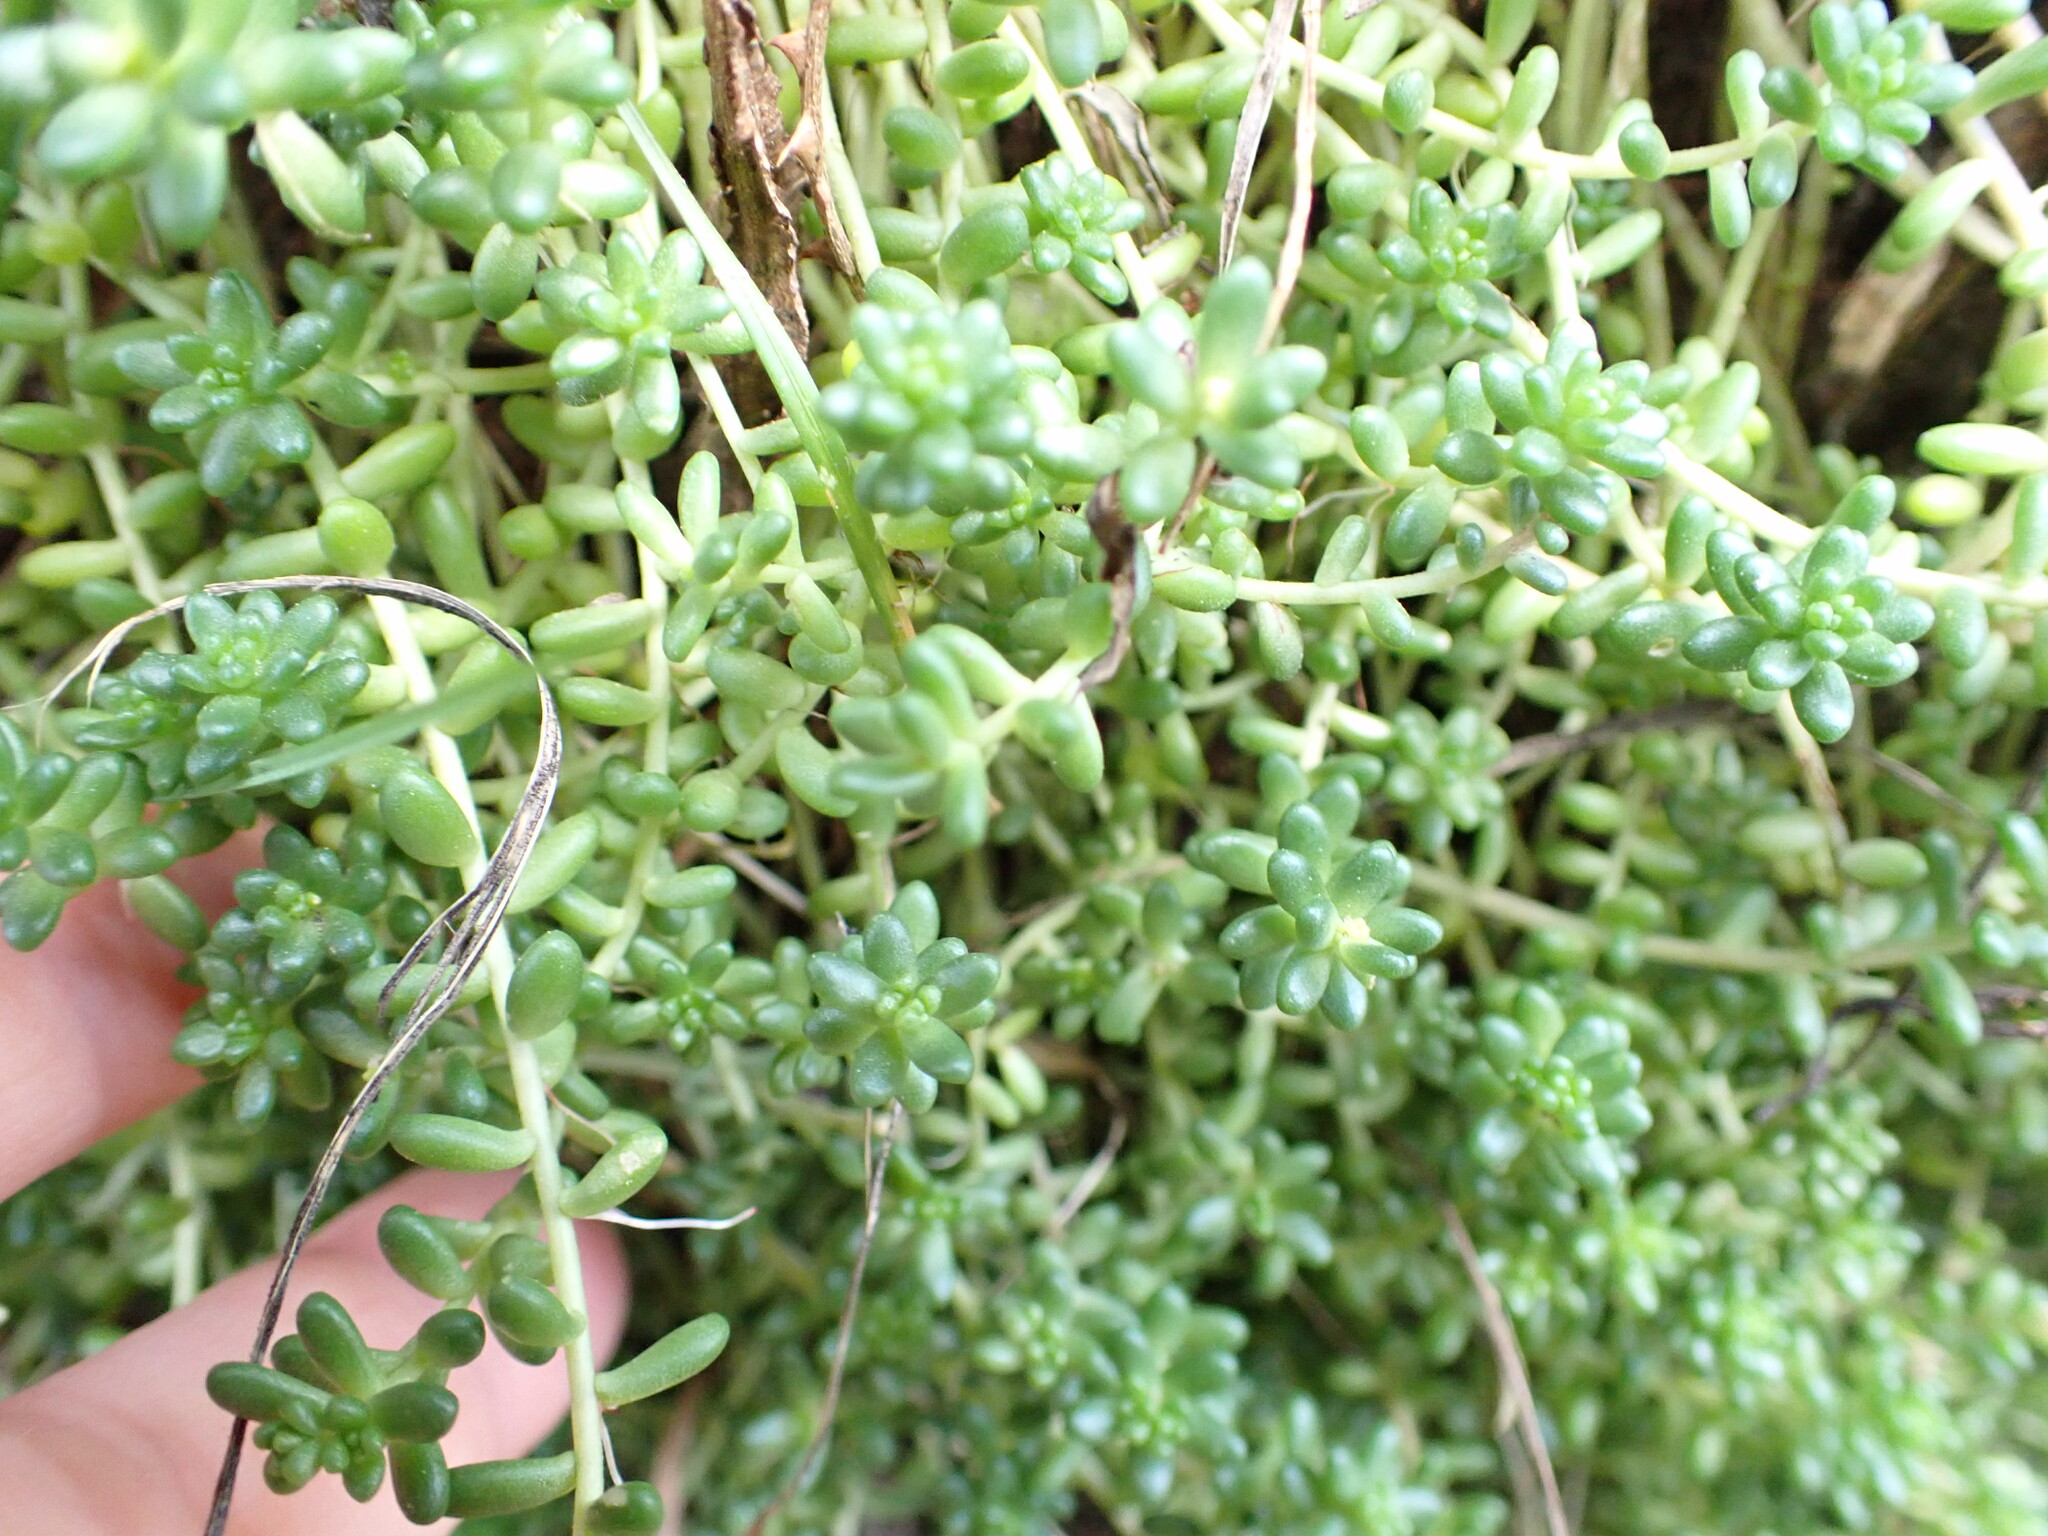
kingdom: Plantae
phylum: Tracheophyta
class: Magnoliopsida
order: Saxifragales
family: Crassulaceae
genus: Sedum
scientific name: Sedum album
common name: White stonecrop
